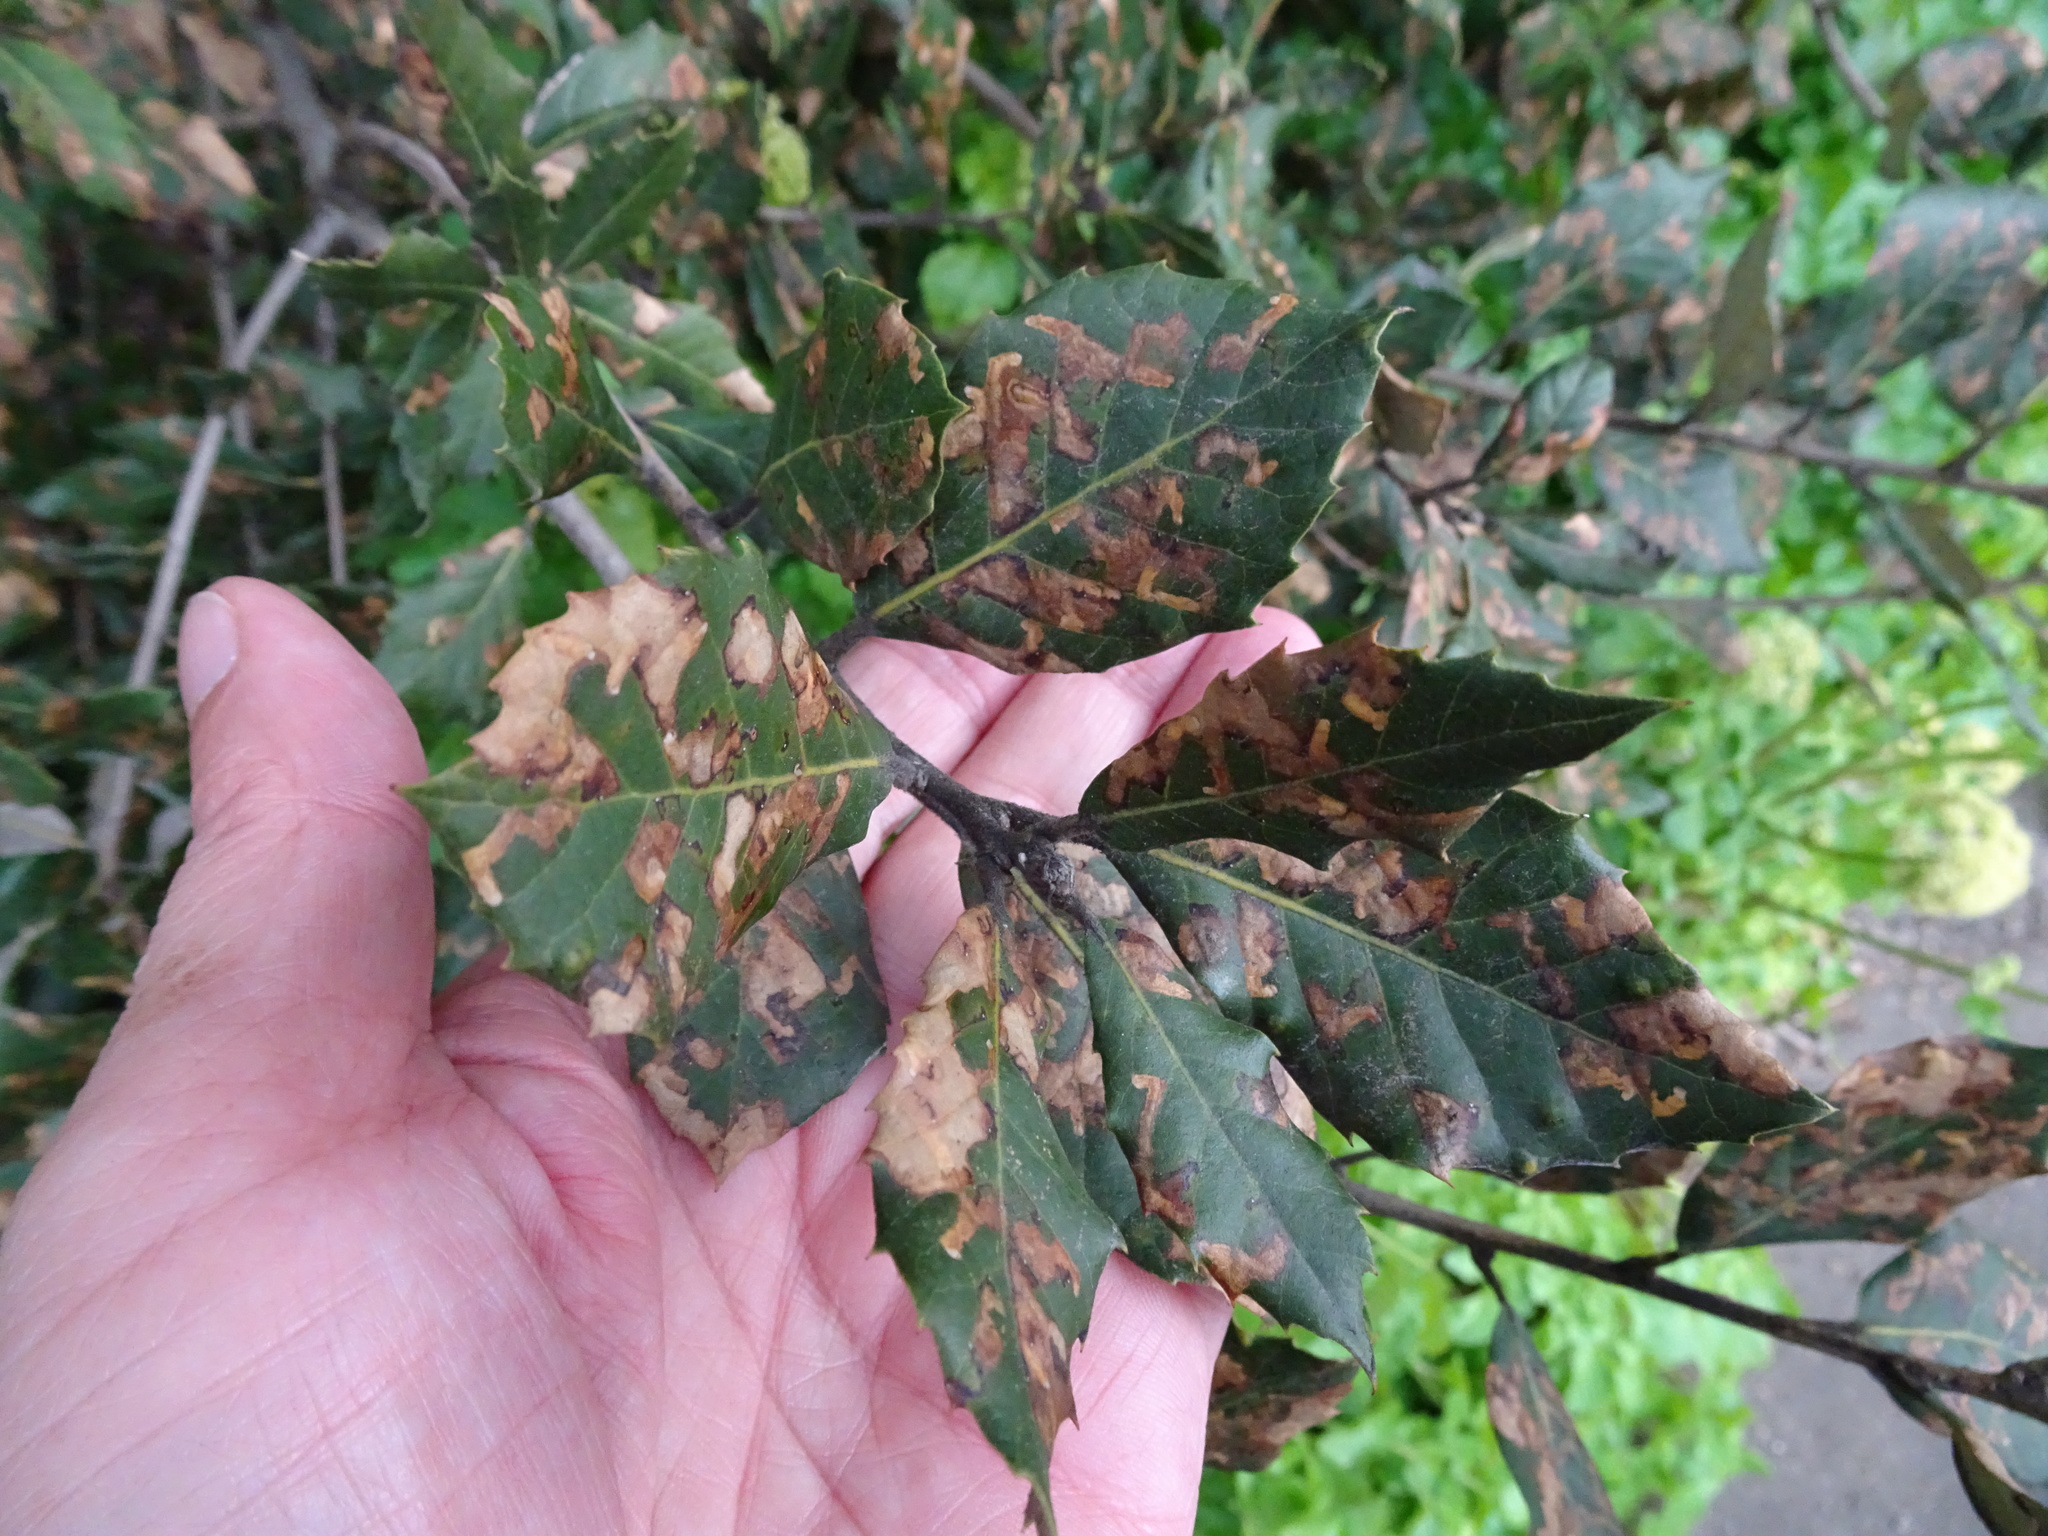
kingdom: Plantae
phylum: Tracheophyta
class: Magnoliopsida
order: Fagales
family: Fagaceae
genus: Quercus
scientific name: Quercus ilex
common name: Evergreen oak
